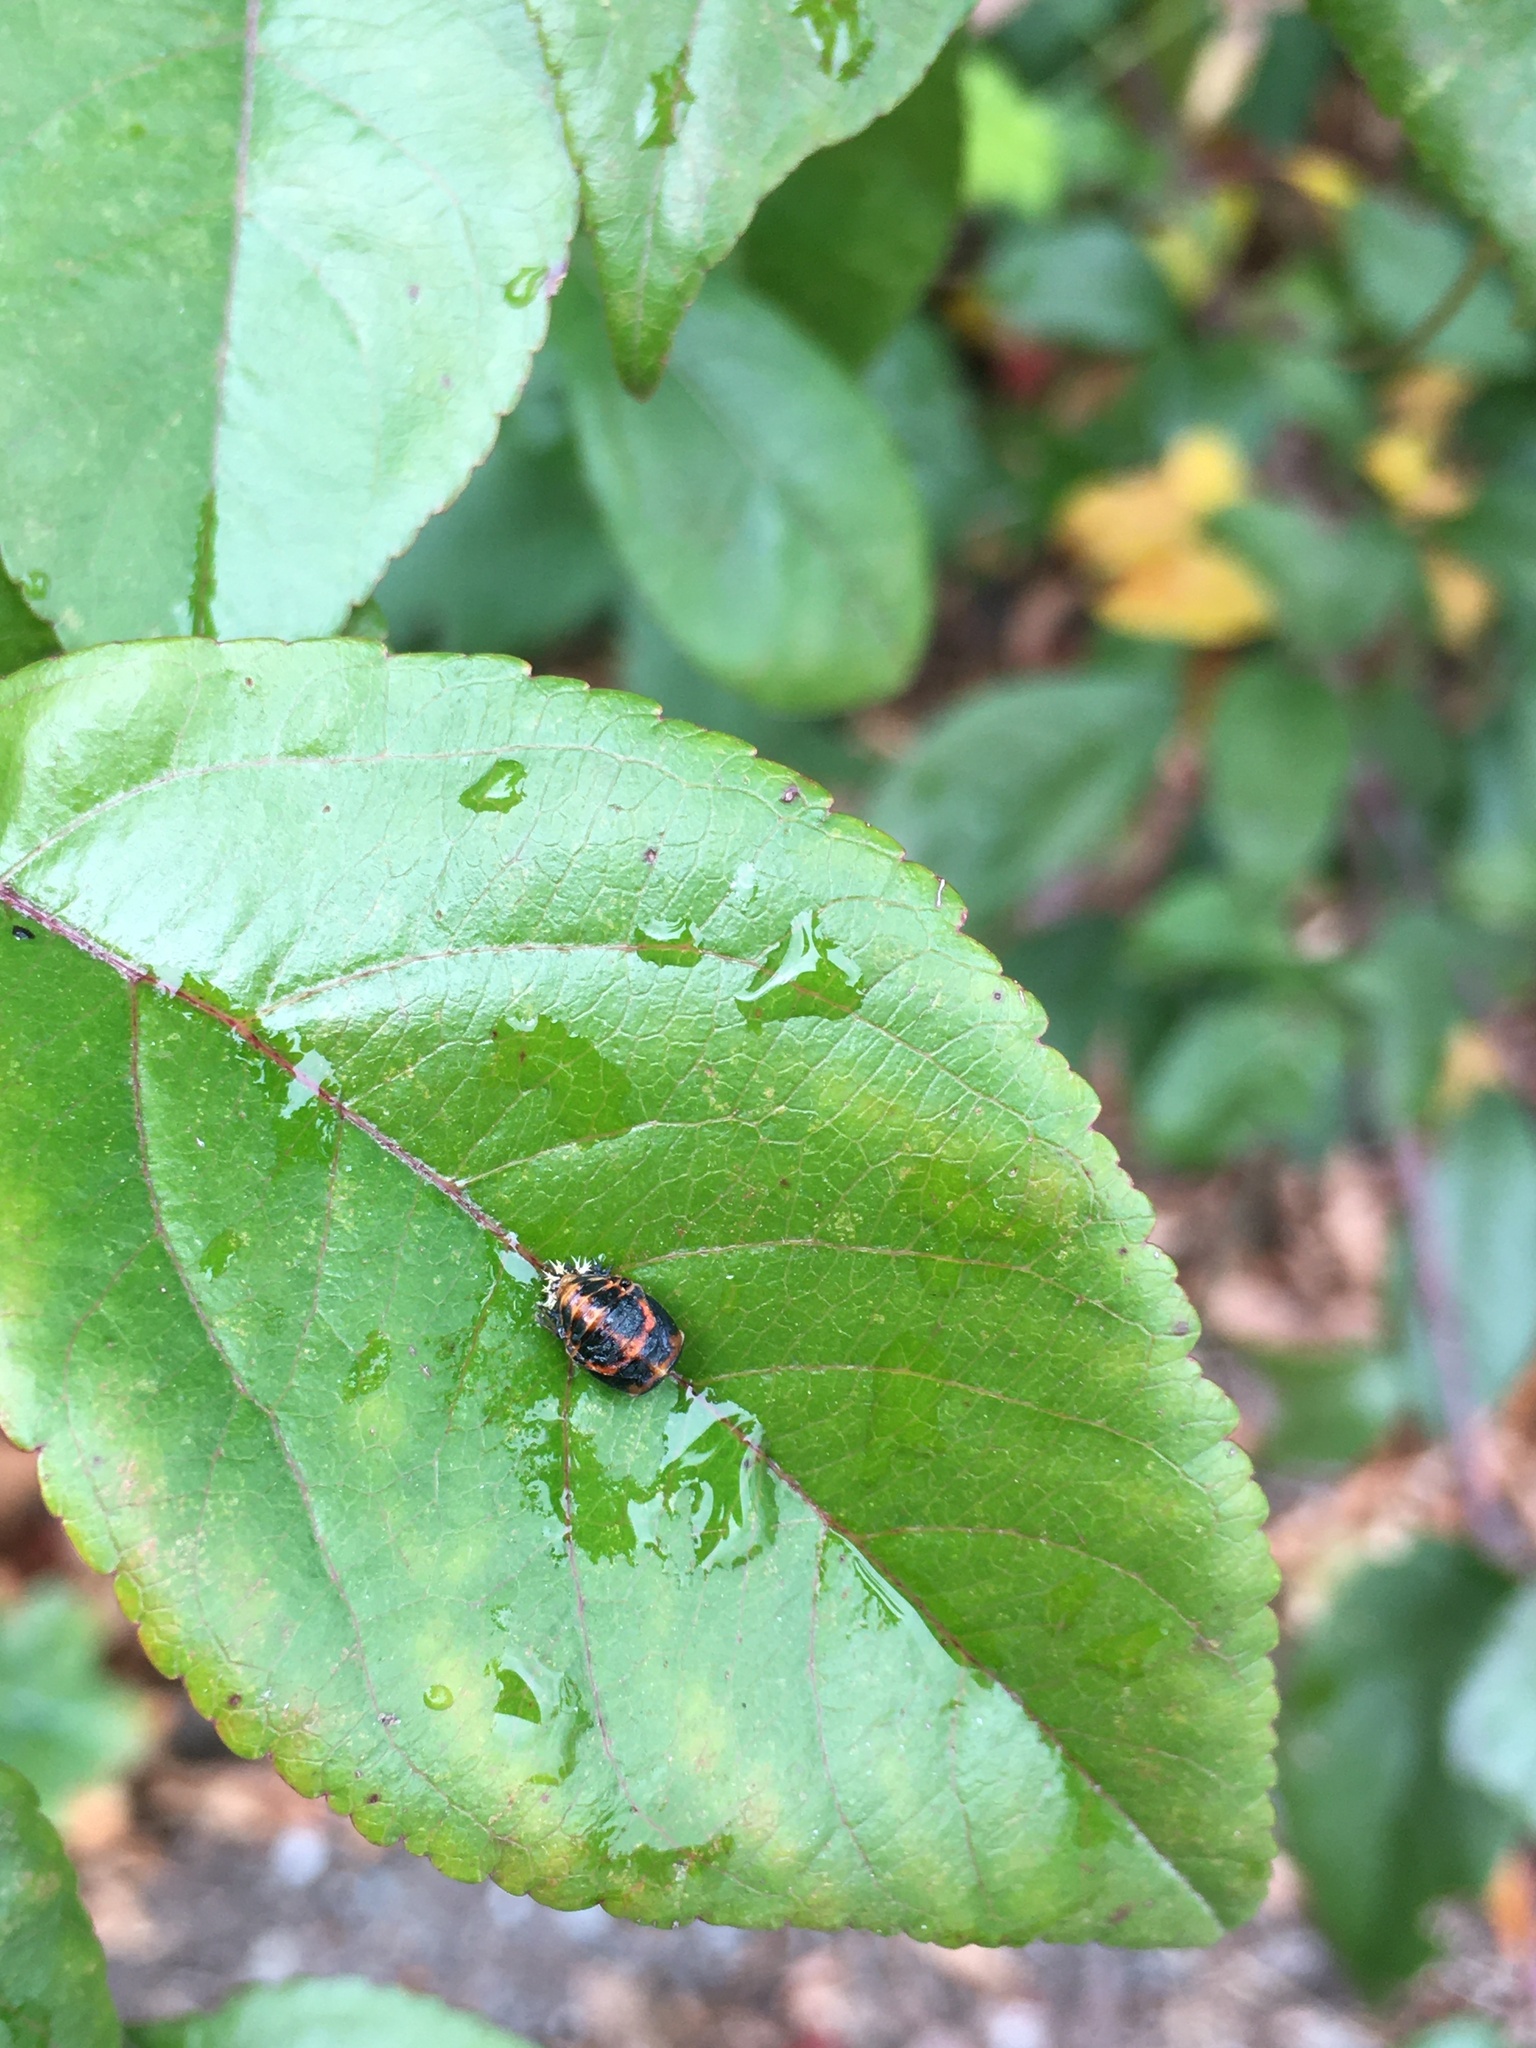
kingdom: Animalia
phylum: Arthropoda
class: Insecta
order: Coleoptera
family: Coccinellidae
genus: Harmonia
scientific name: Harmonia axyridis
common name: Harlequin ladybird
